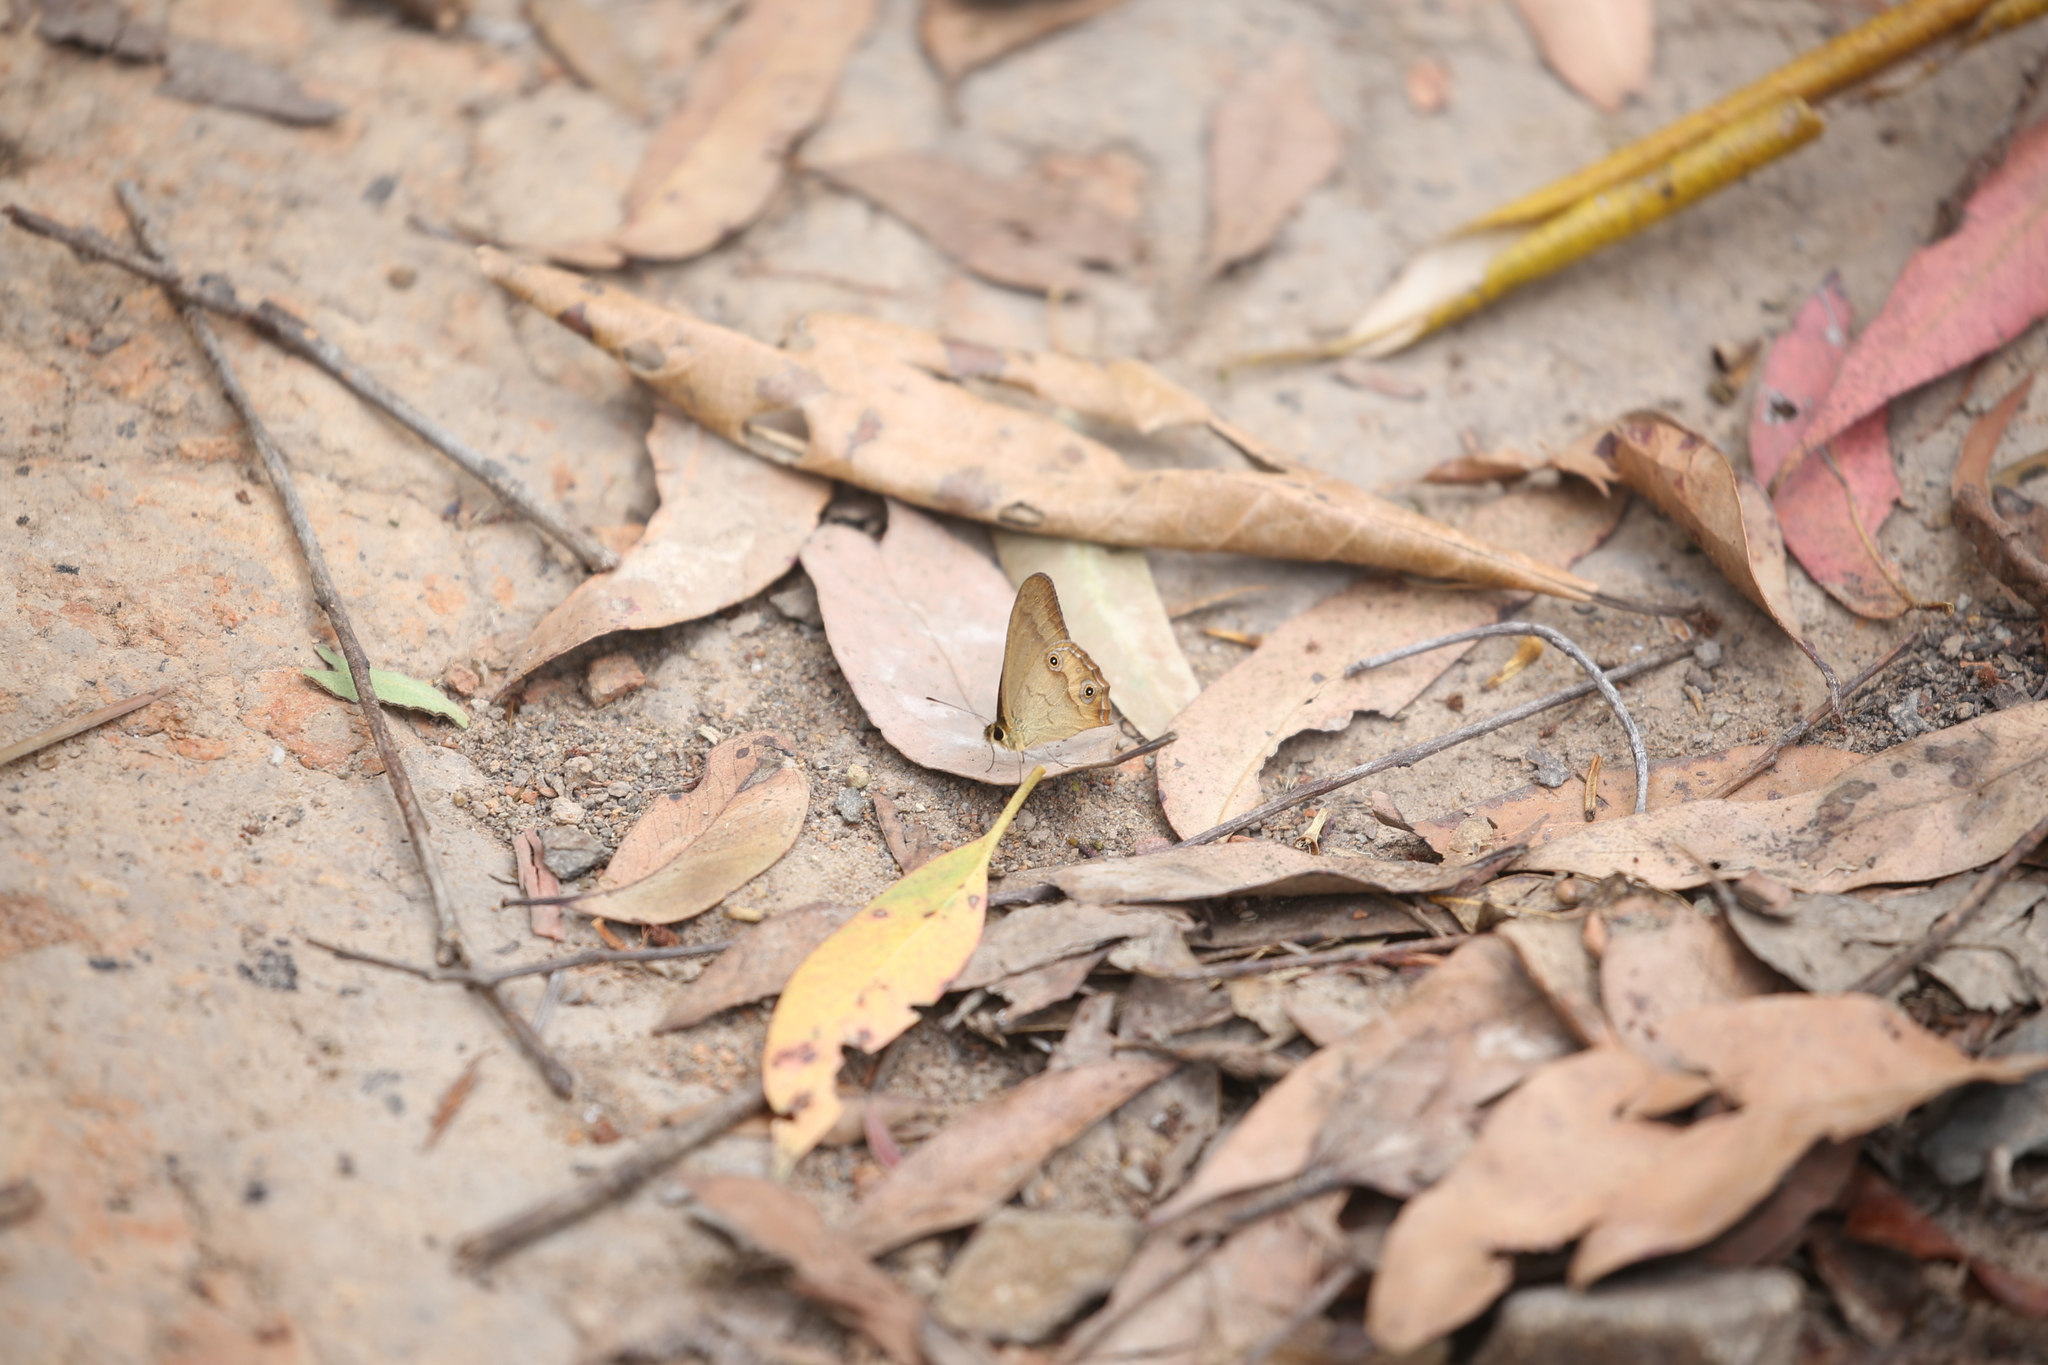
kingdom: Animalia
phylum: Arthropoda
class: Insecta
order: Lepidoptera
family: Nymphalidae
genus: Hypocysta
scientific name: Hypocysta metirius
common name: Brown ringlet
